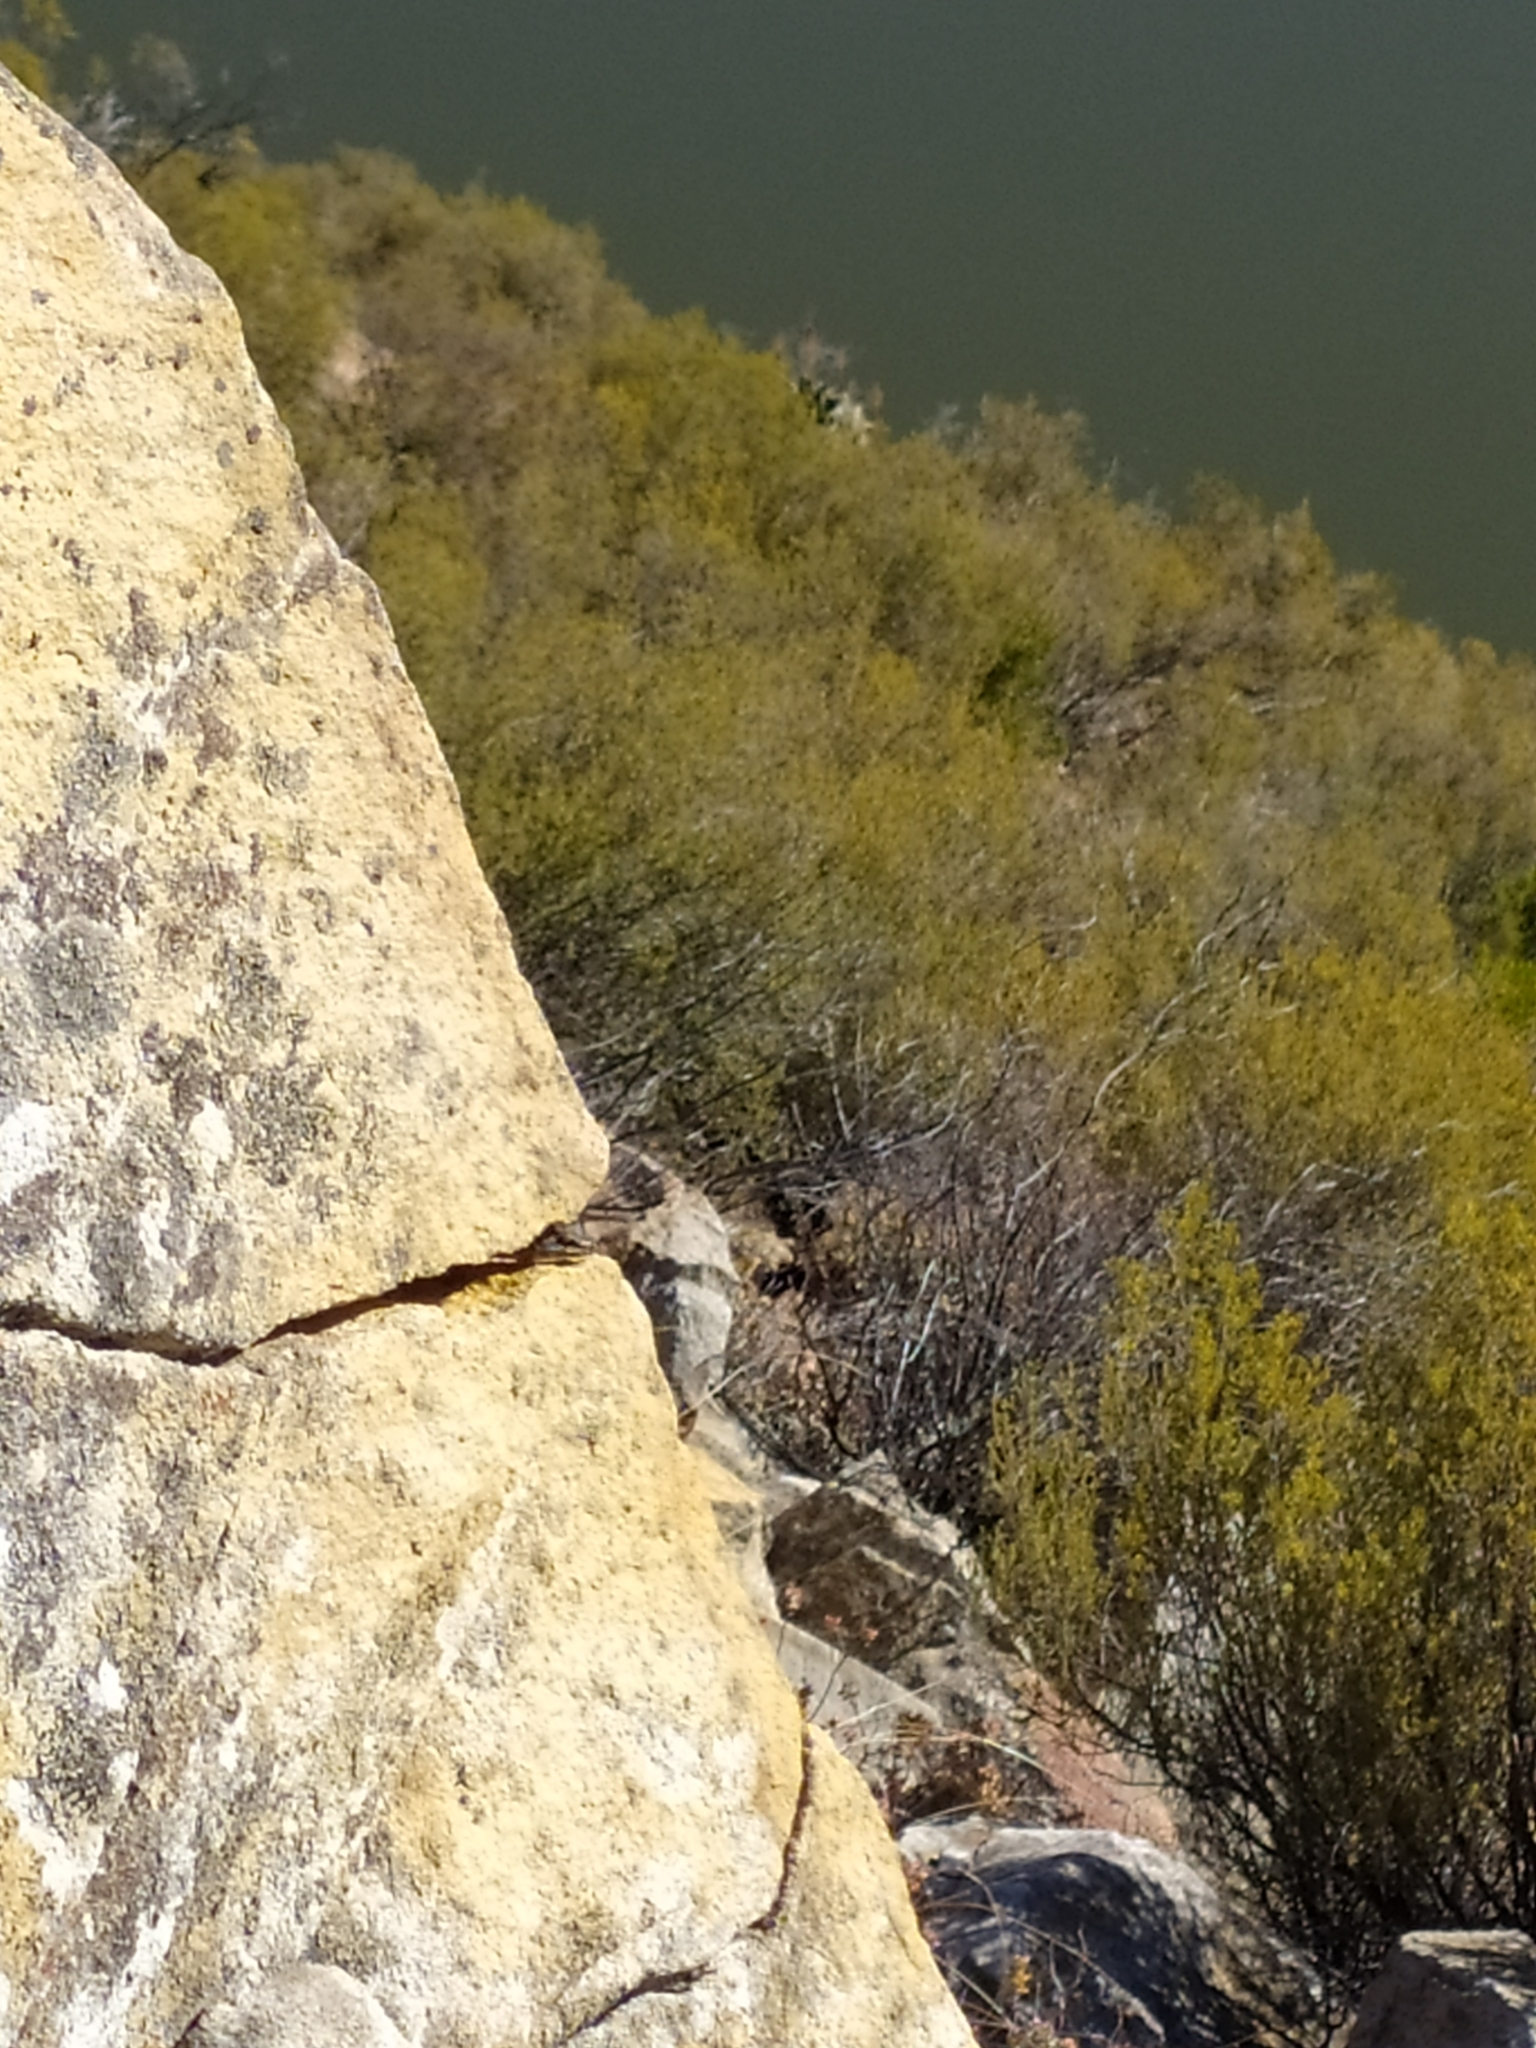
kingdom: Animalia
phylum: Chordata
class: Squamata
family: Scincidae
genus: Trachylepis
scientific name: Trachylepis sulcata
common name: Western rock skink
